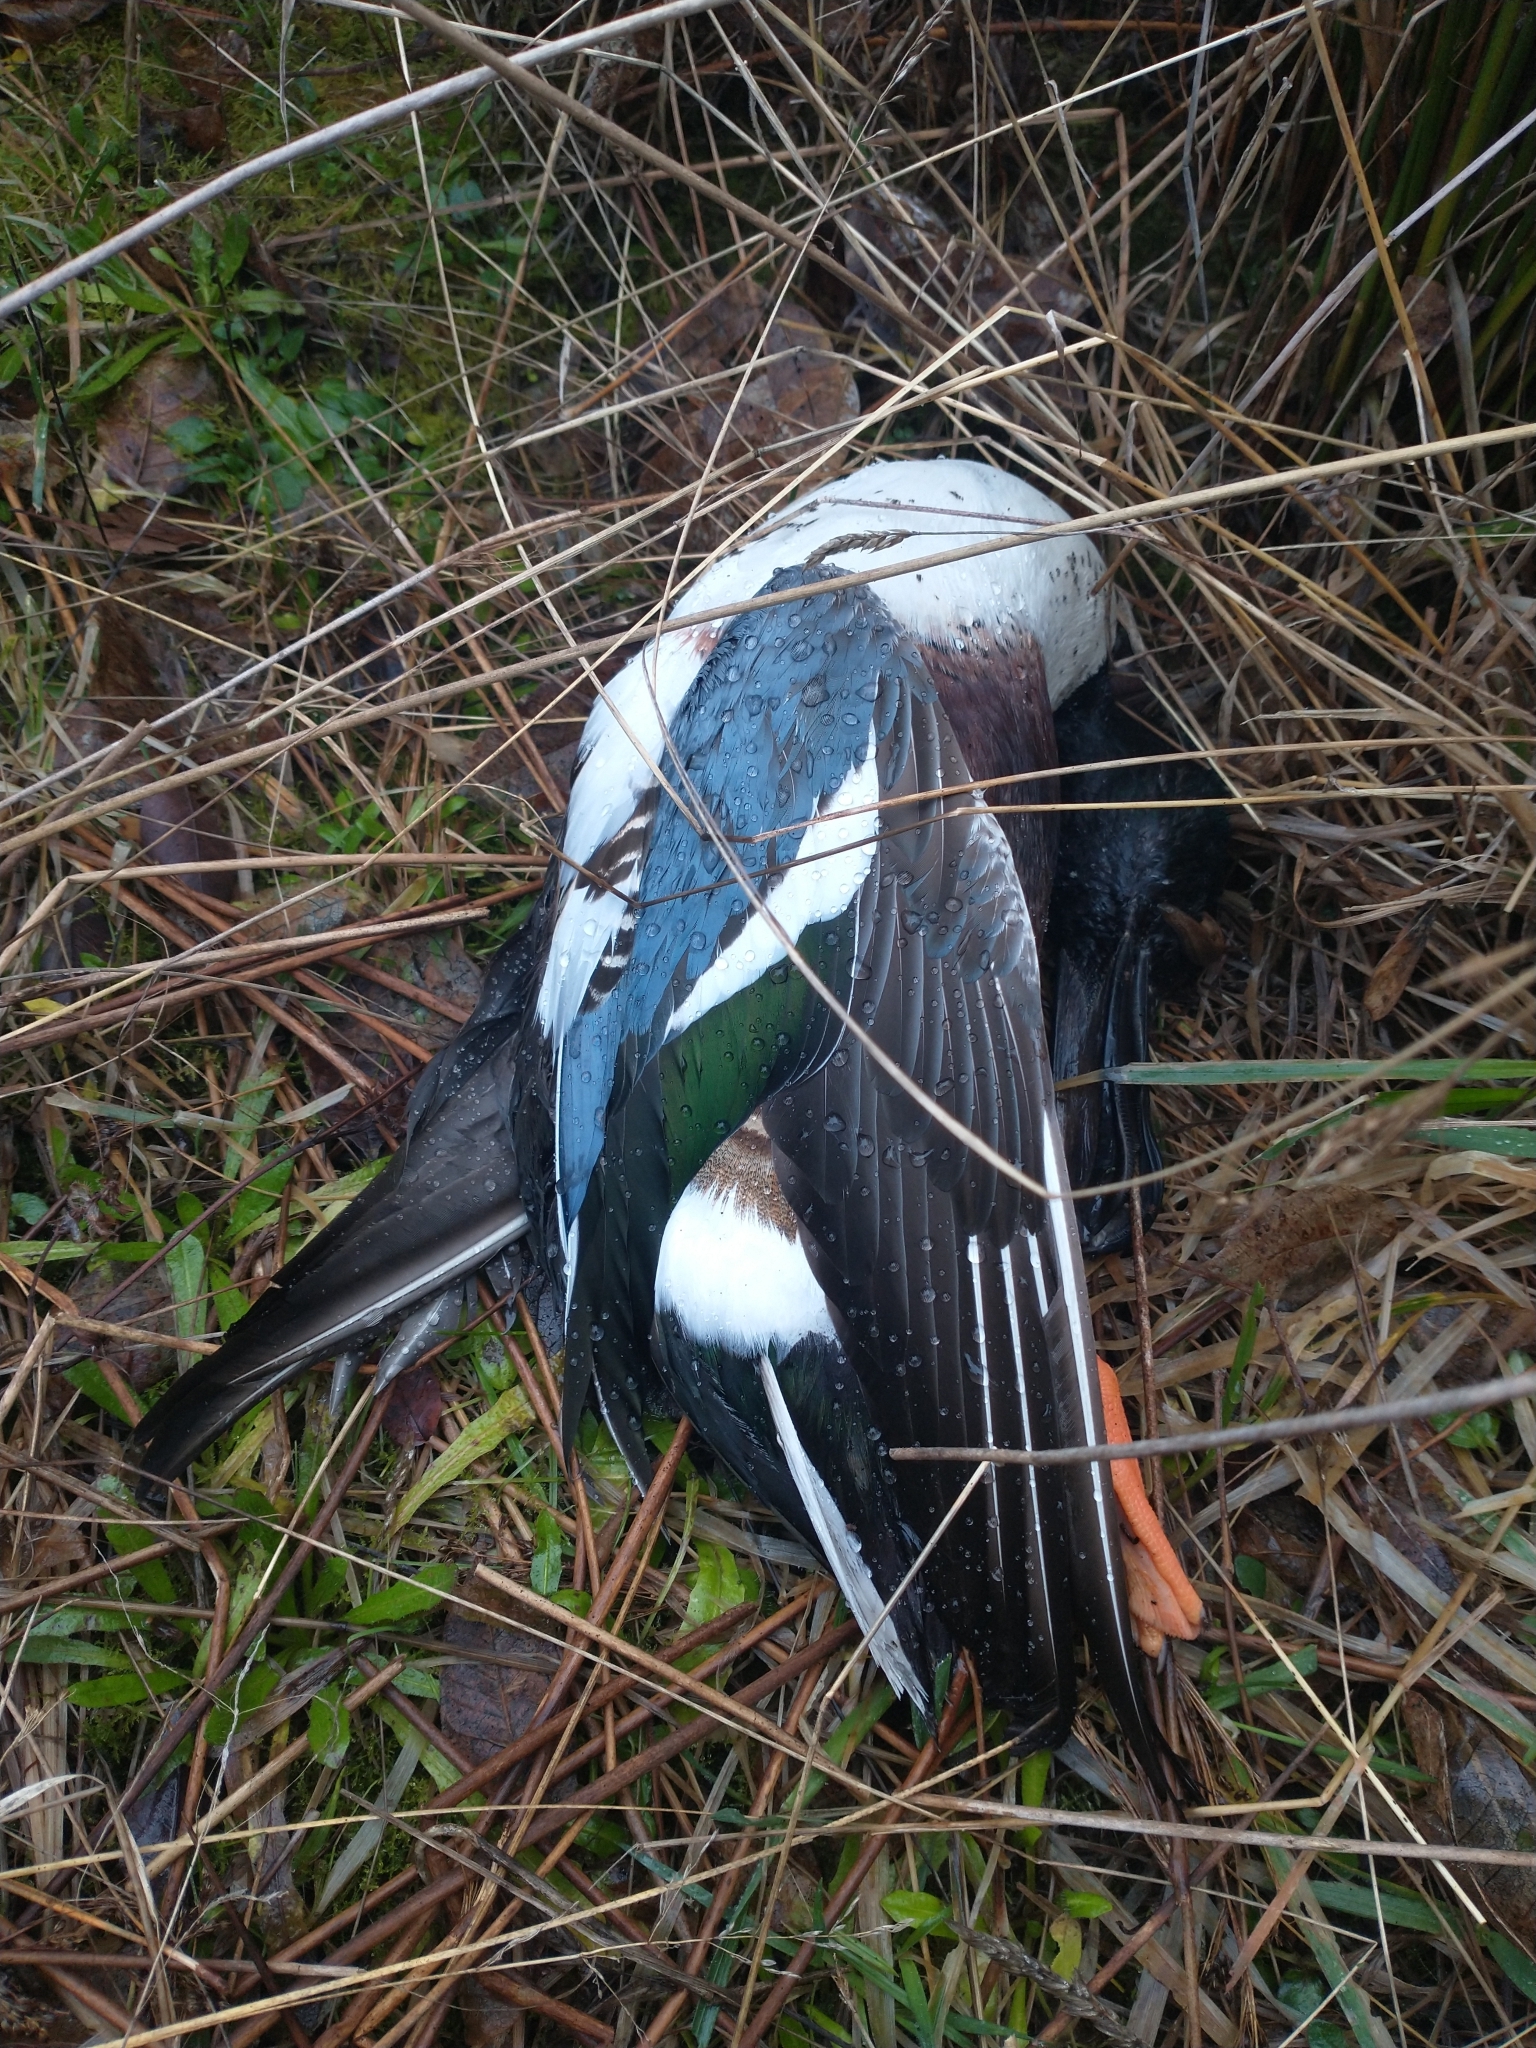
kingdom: Animalia
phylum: Chordata
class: Aves
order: Anseriformes
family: Anatidae
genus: Spatula
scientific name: Spatula clypeata
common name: Northern shoveler
